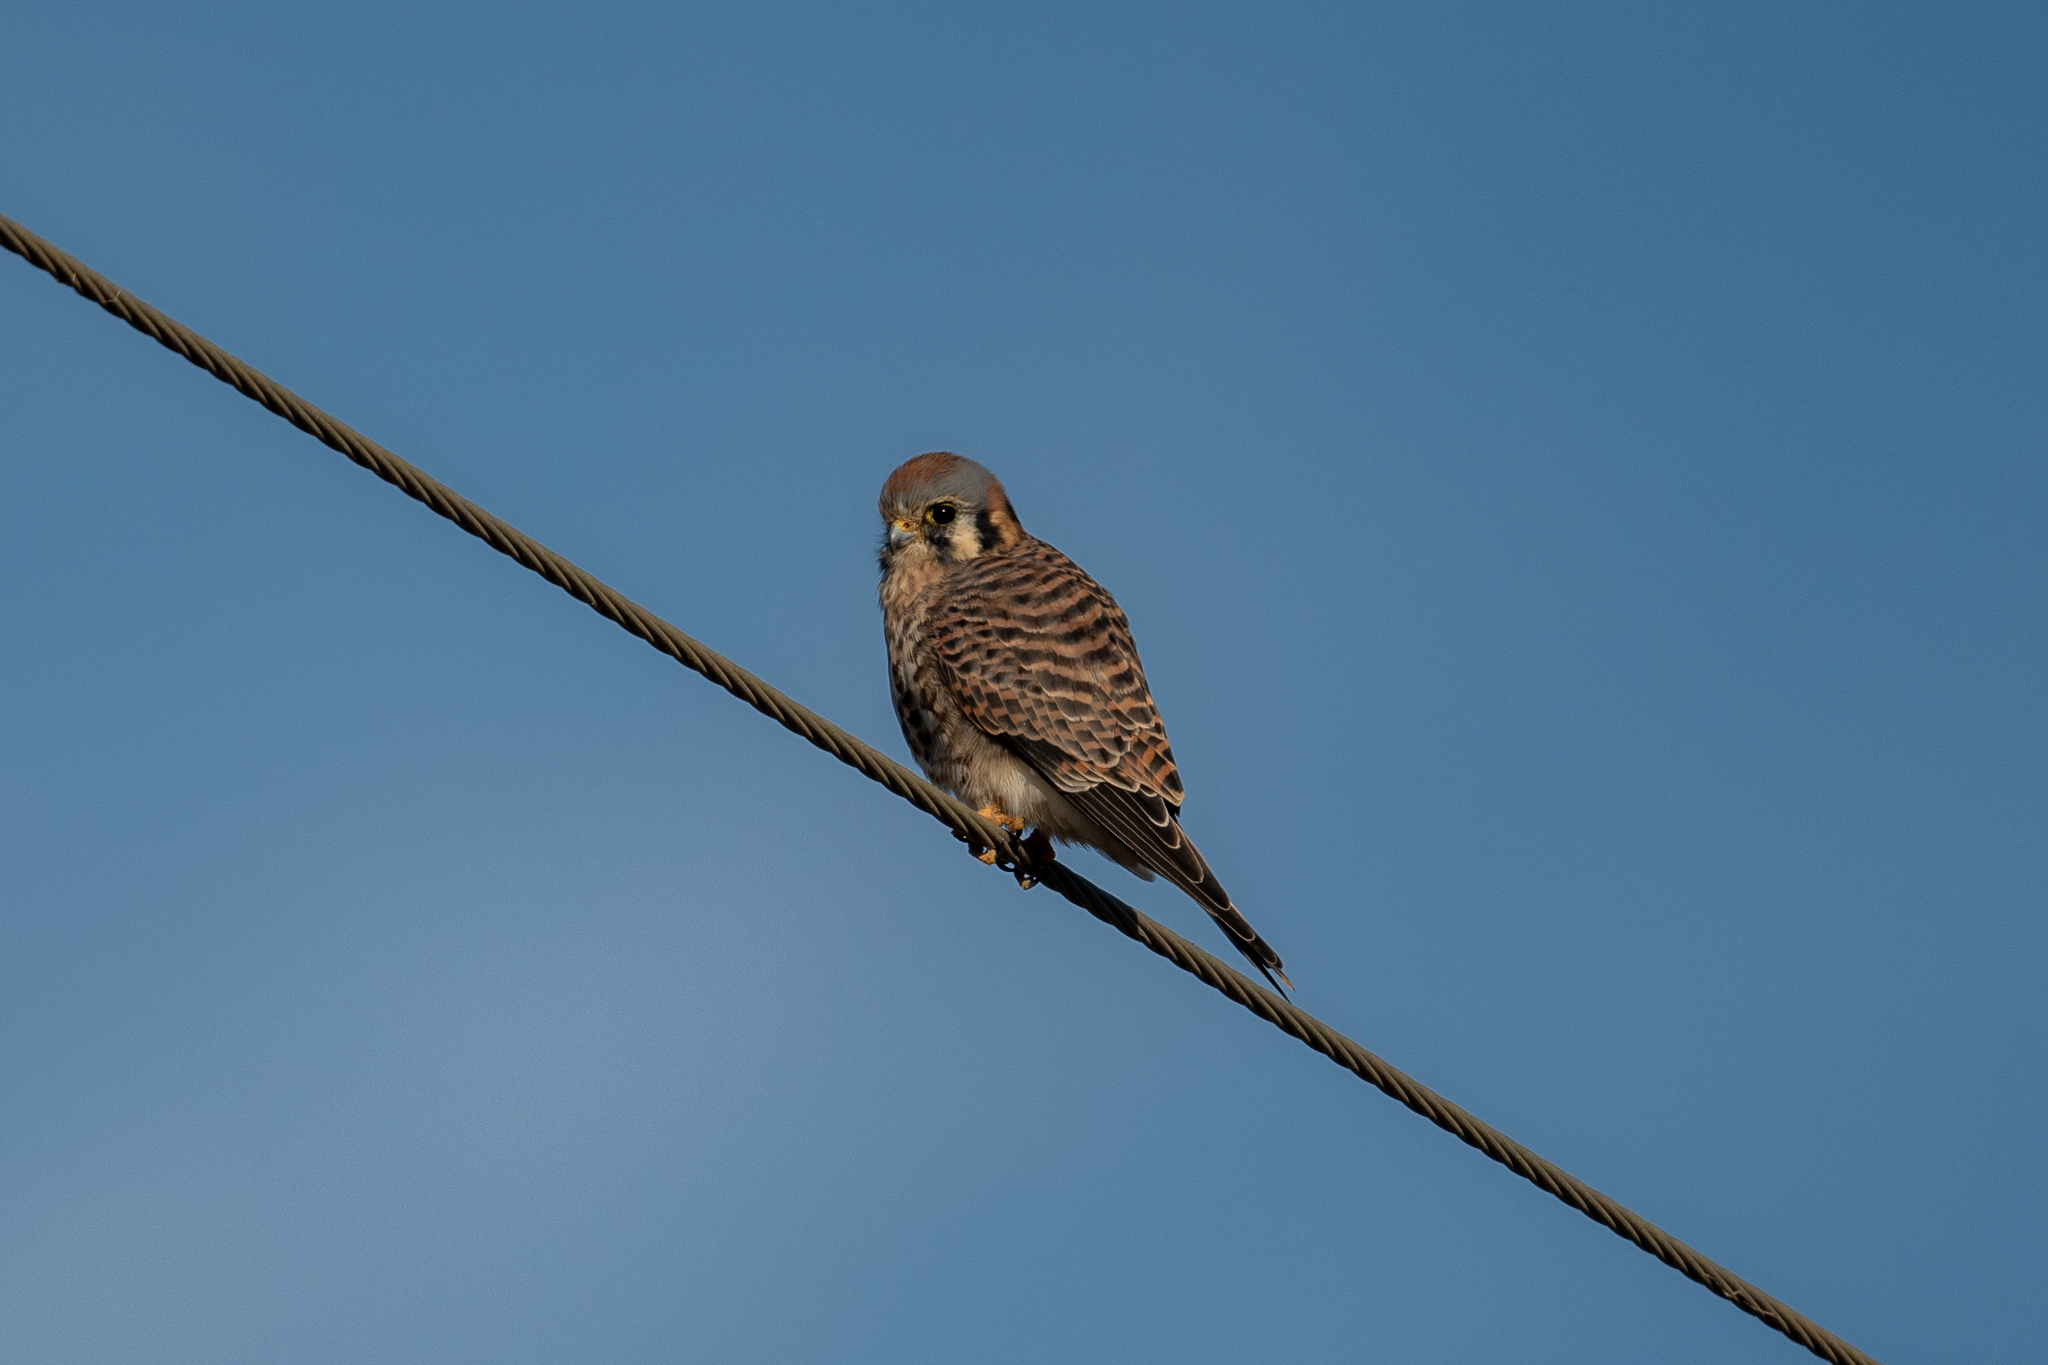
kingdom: Animalia
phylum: Chordata
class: Aves
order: Falconiformes
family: Falconidae
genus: Falco
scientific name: Falco sparverius
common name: American kestrel
